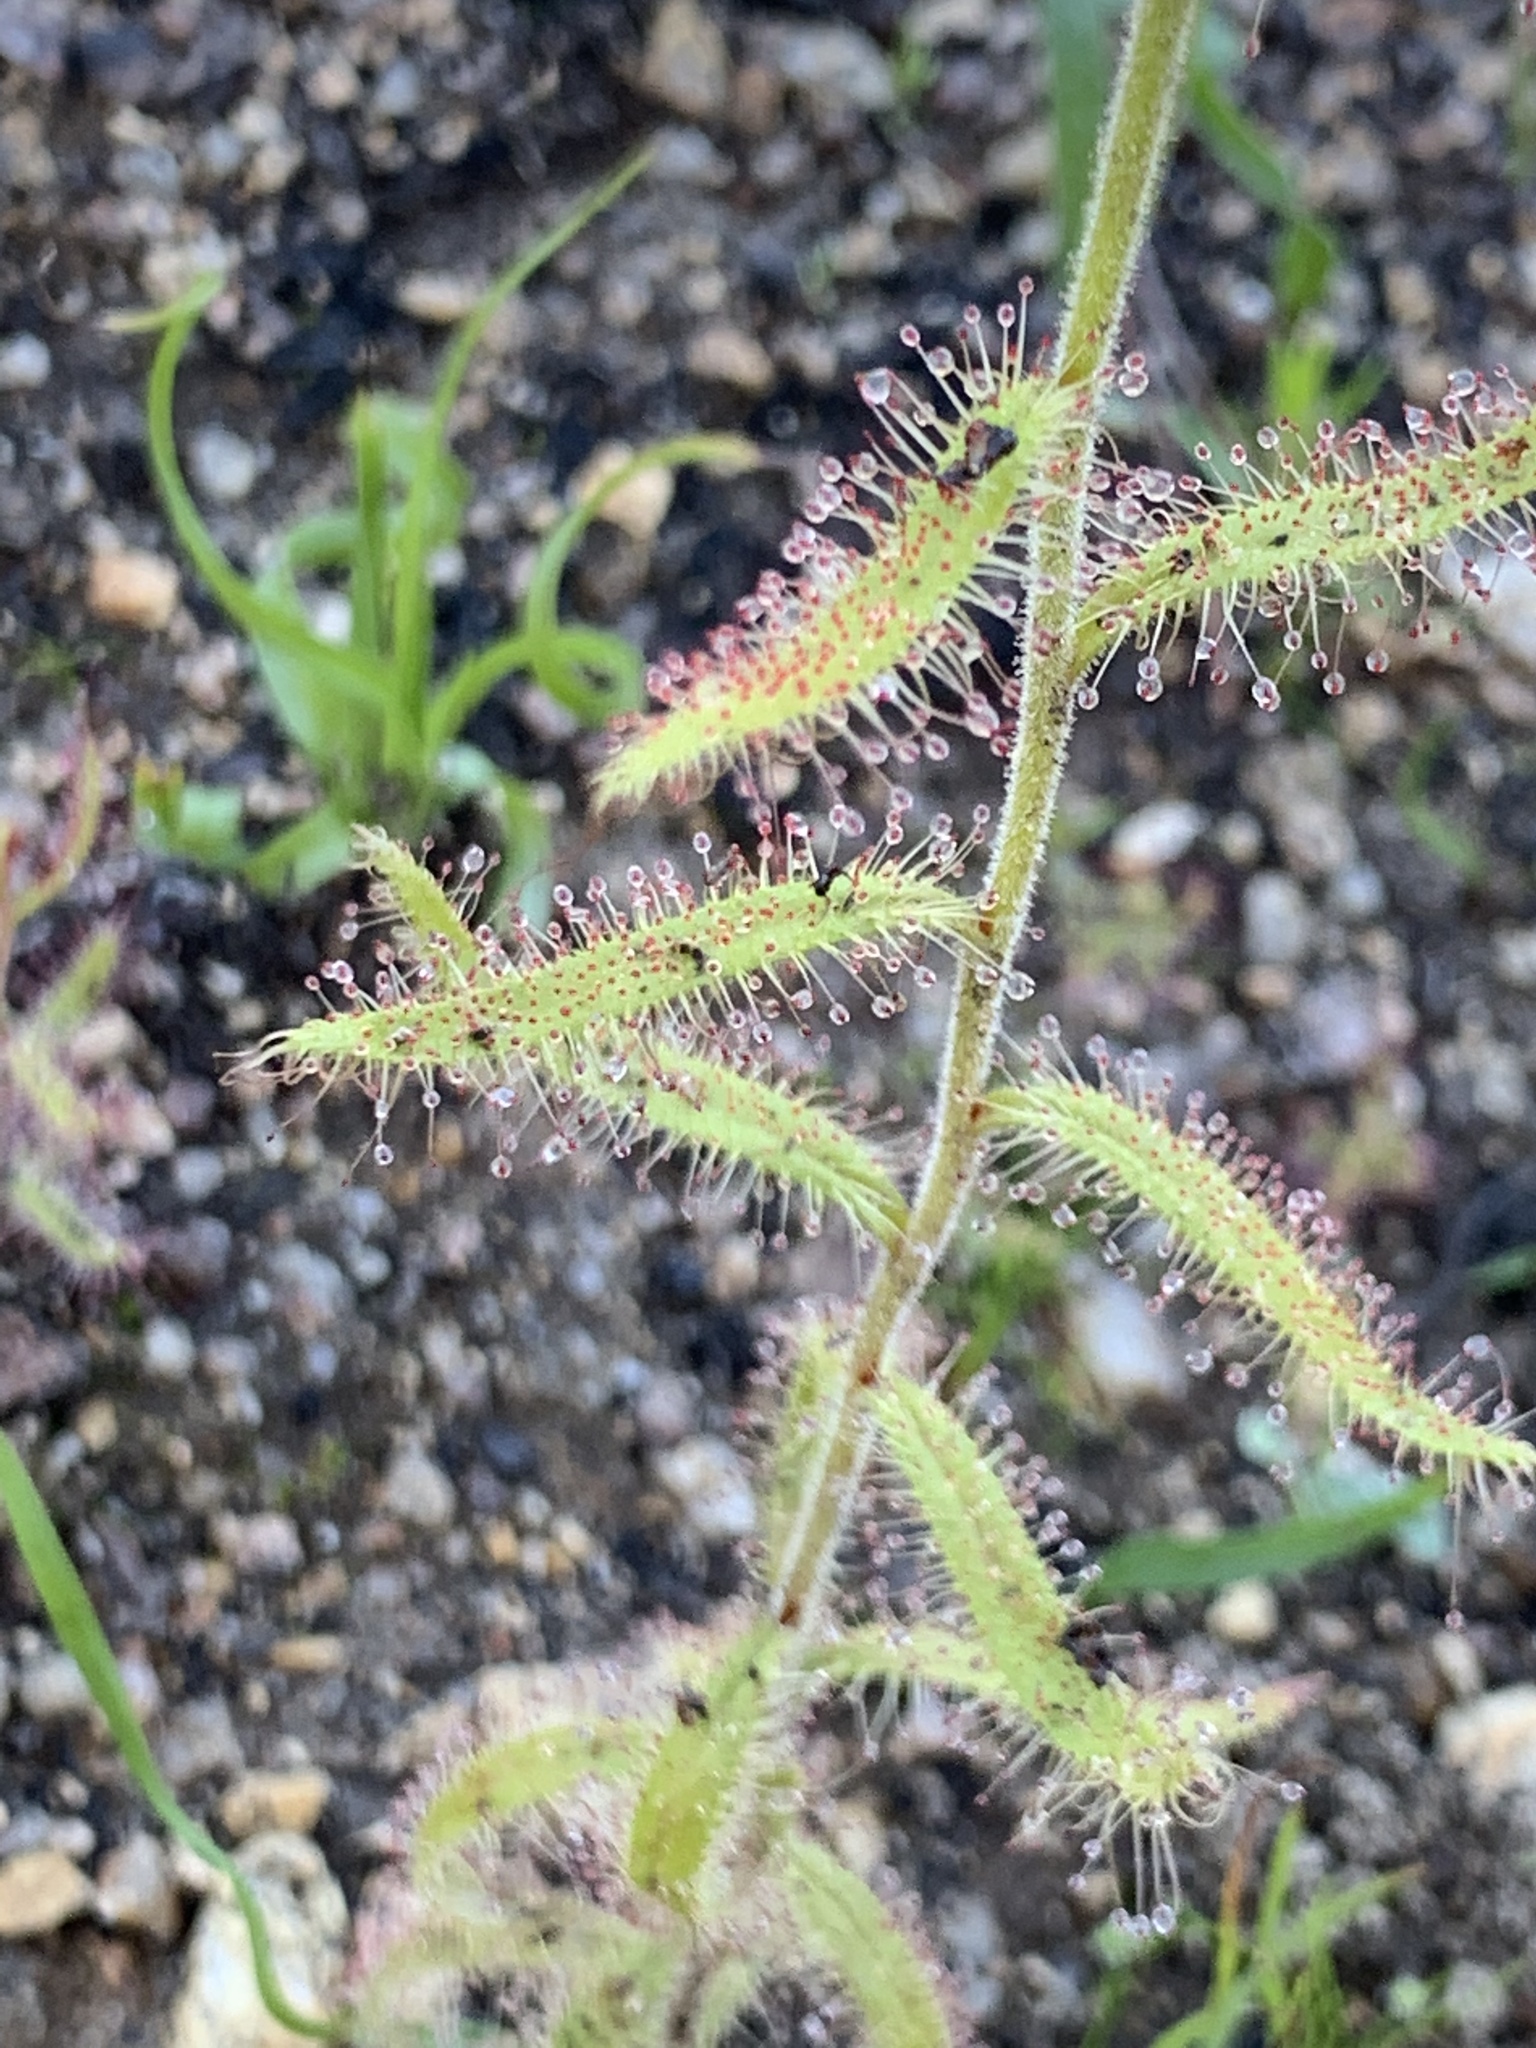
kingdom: Plantae
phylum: Tracheophyta
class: Magnoliopsida
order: Caryophyllales
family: Droseraceae
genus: Drosera
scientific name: Drosera cistiflora
